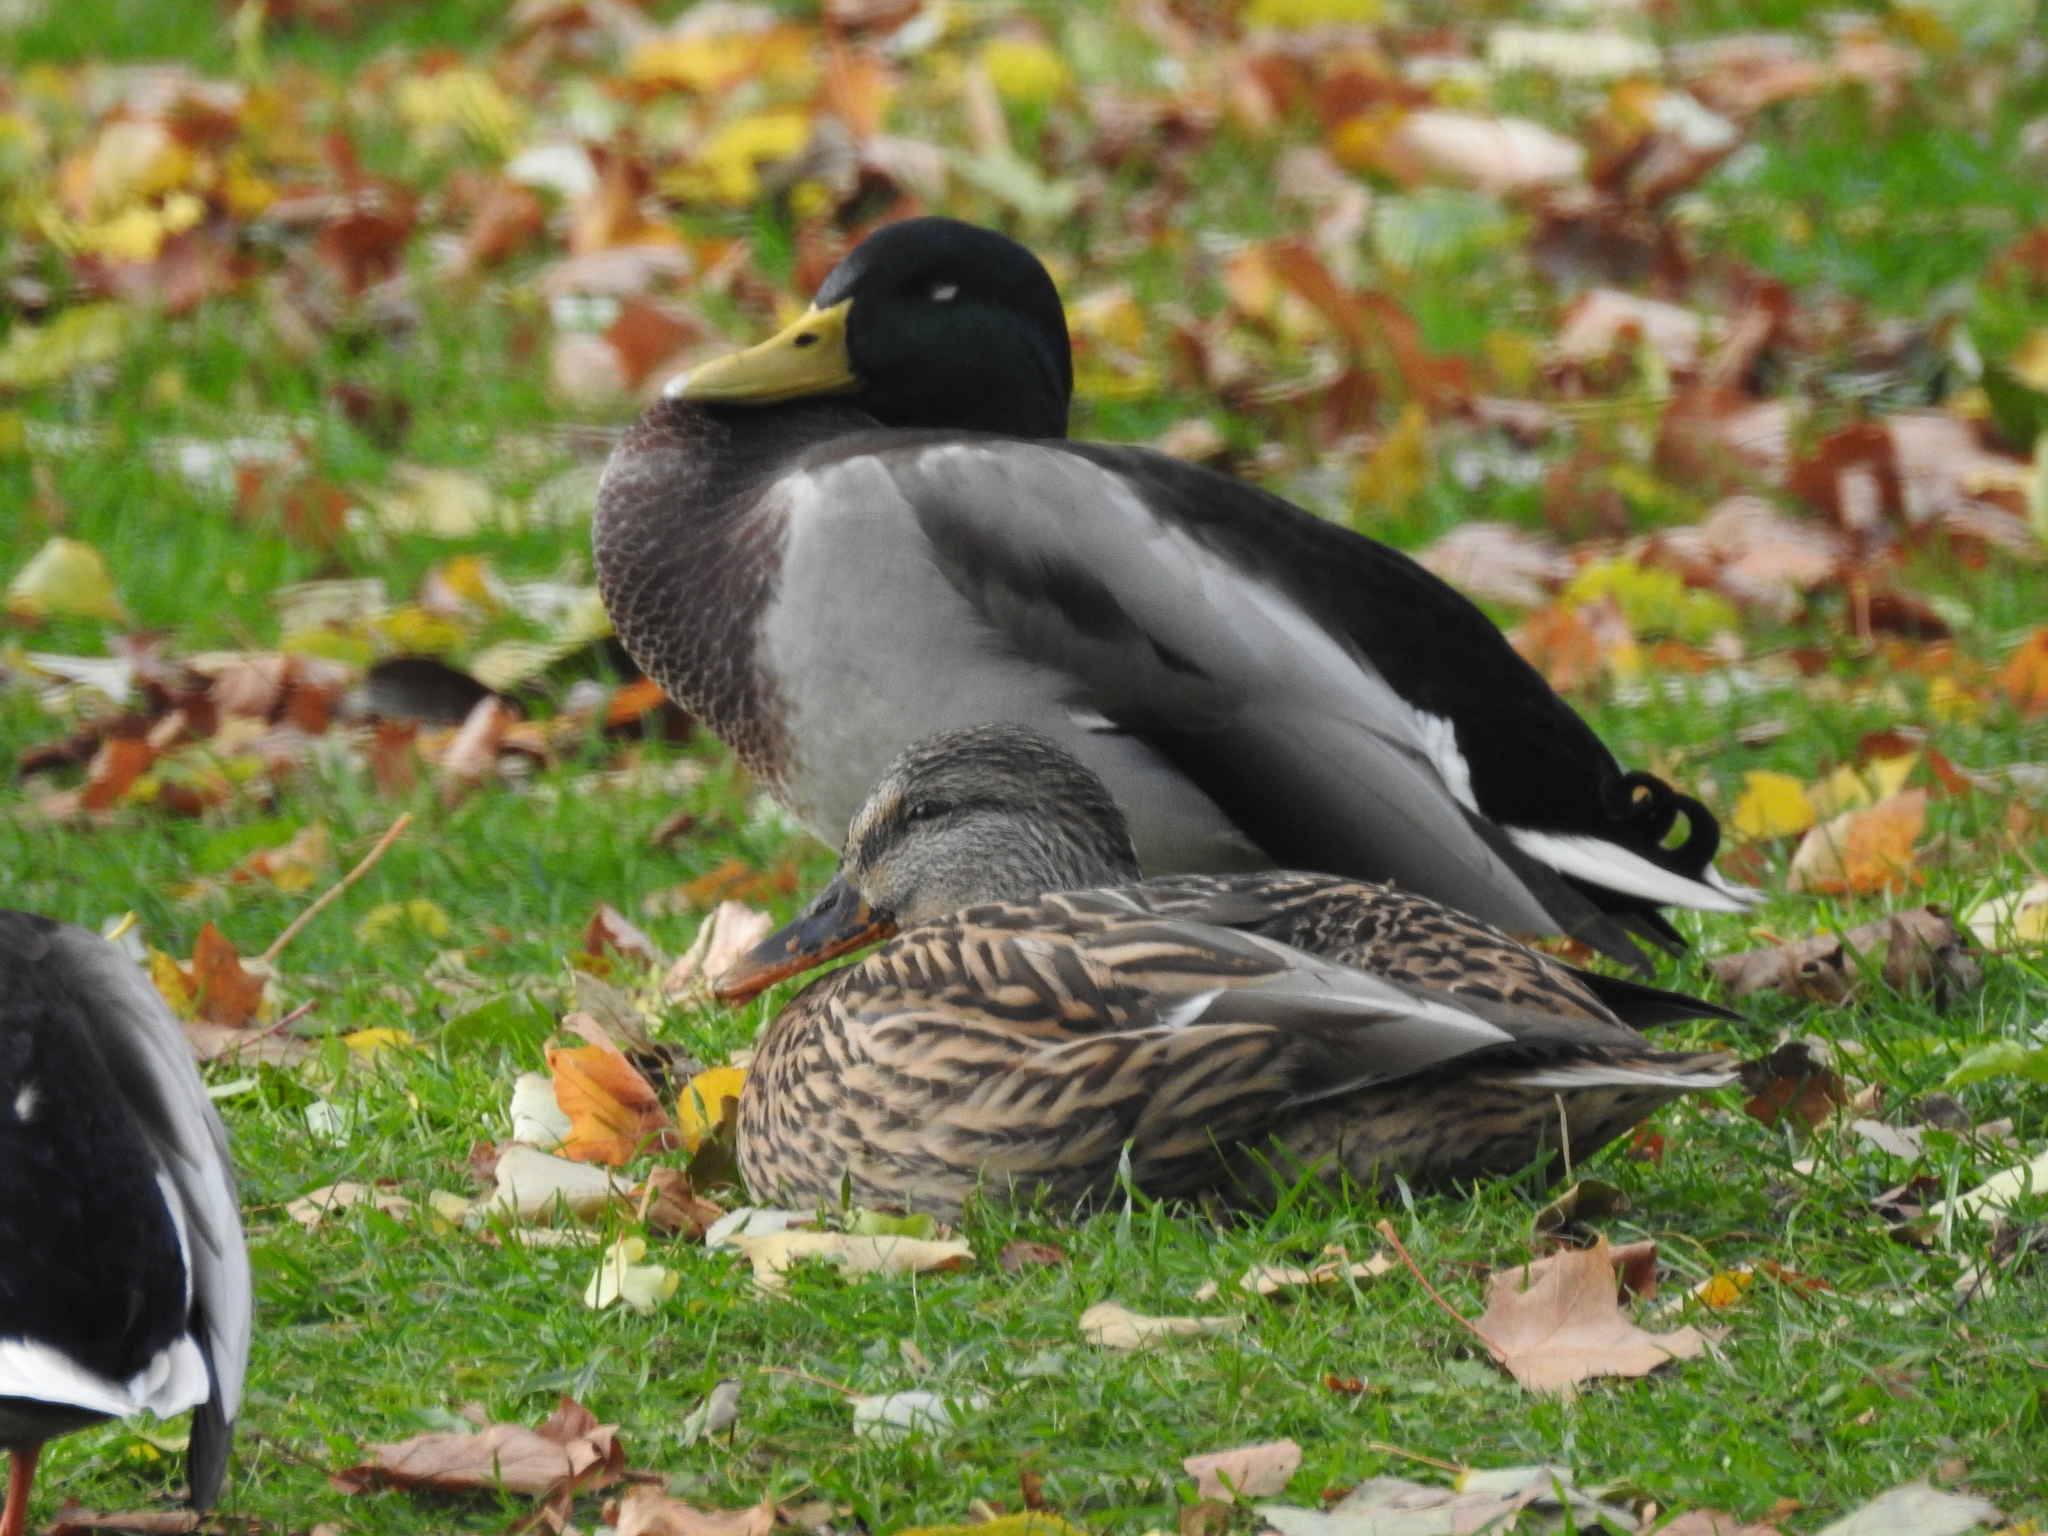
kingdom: Animalia
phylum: Chordata
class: Aves
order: Anseriformes
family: Anatidae
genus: Anas
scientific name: Anas platyrhynchos
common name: Mallard
